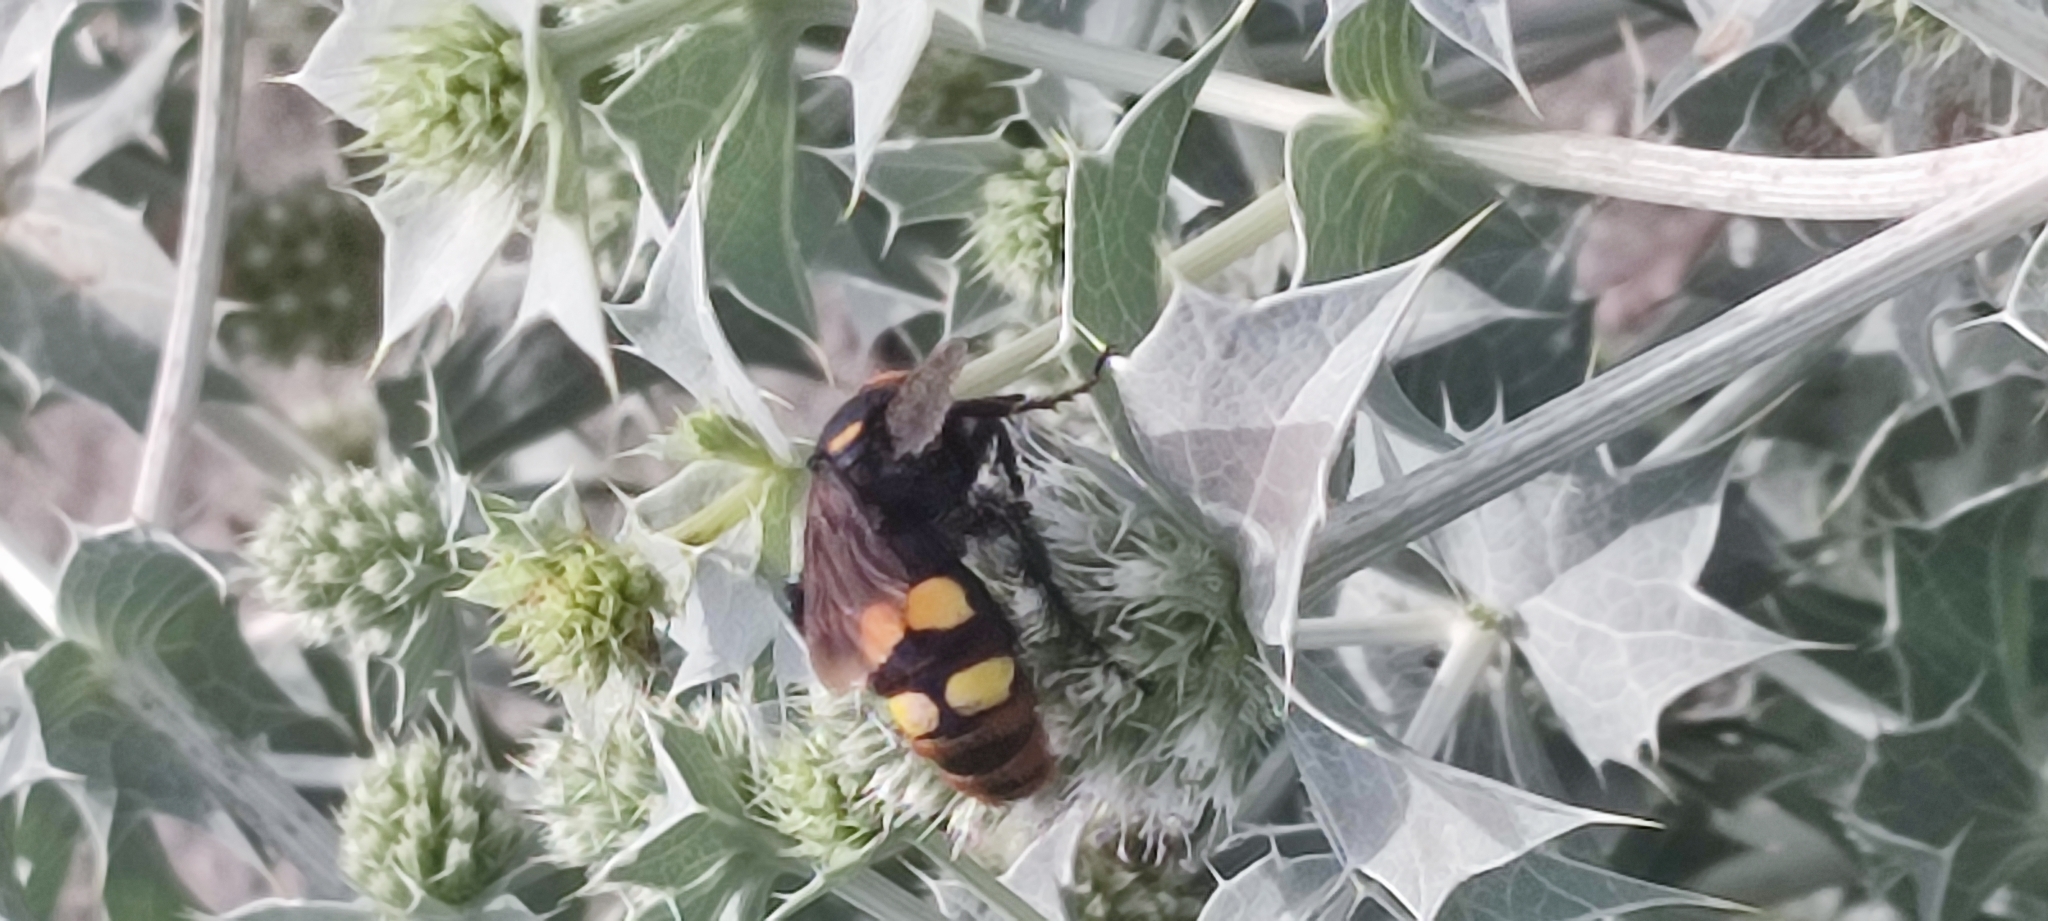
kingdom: Animalia
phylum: Arthropoda
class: Insecta
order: Hymenoptera
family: Scoliidae
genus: Megascolia
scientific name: Megascolia maculata
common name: Mammoth wasp
